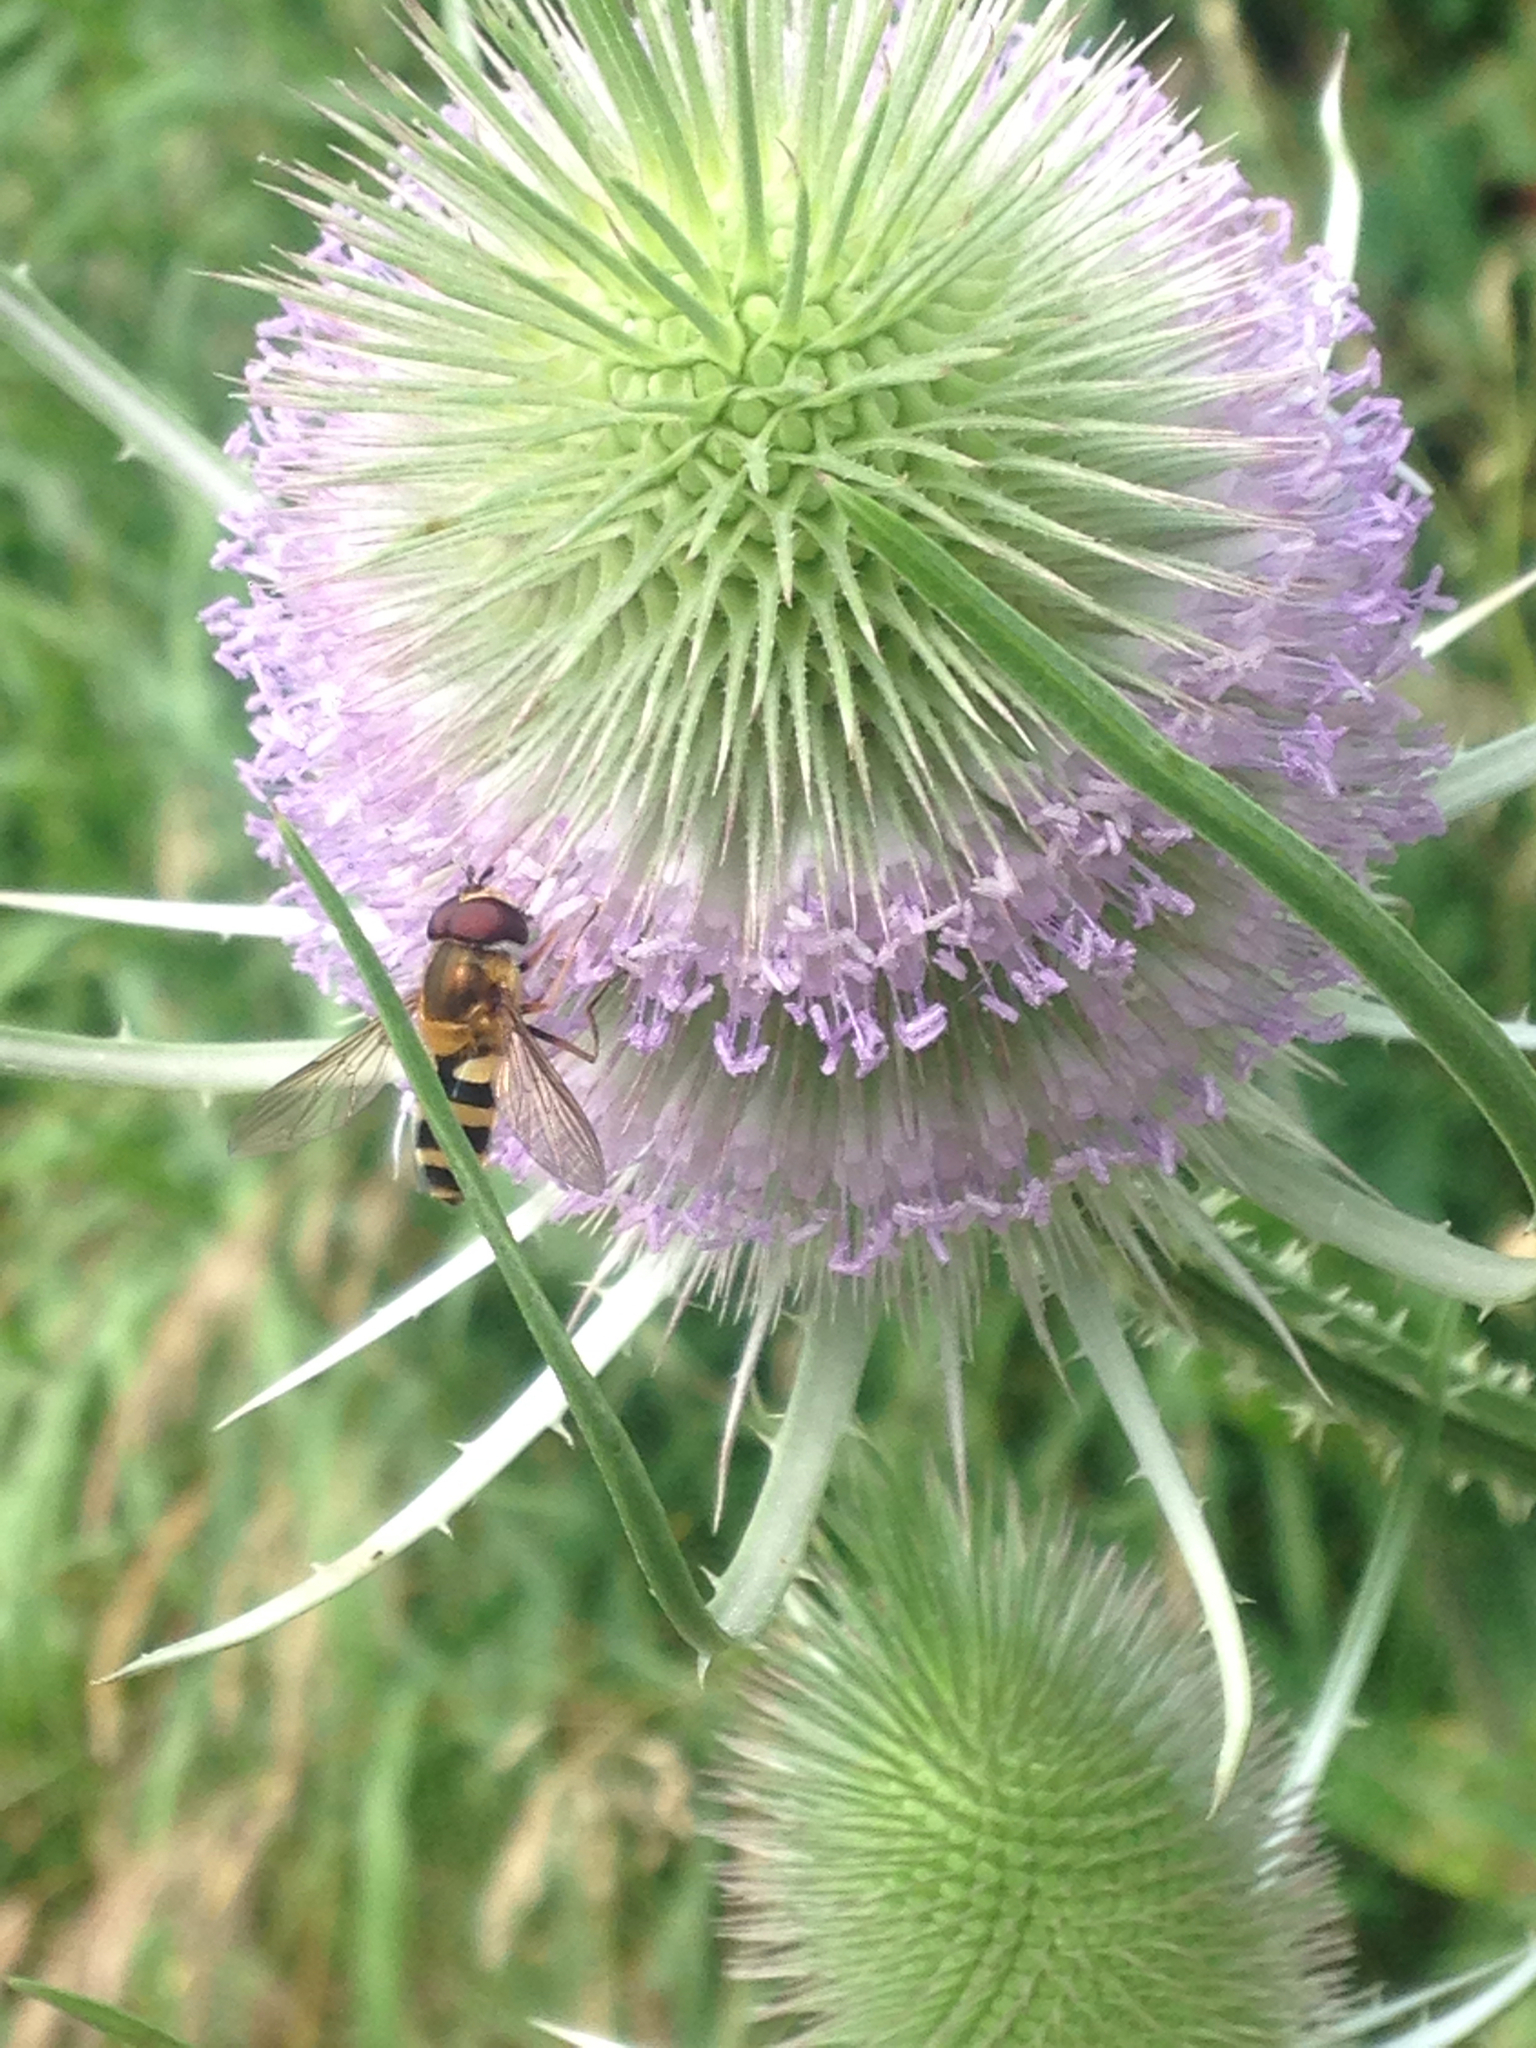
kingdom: Animalia
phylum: Arthropoda
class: Insecta
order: Diptera
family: Syrphidae
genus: Epistrophe
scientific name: Epistrophe grossulariae
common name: Black-horned smoothtail
